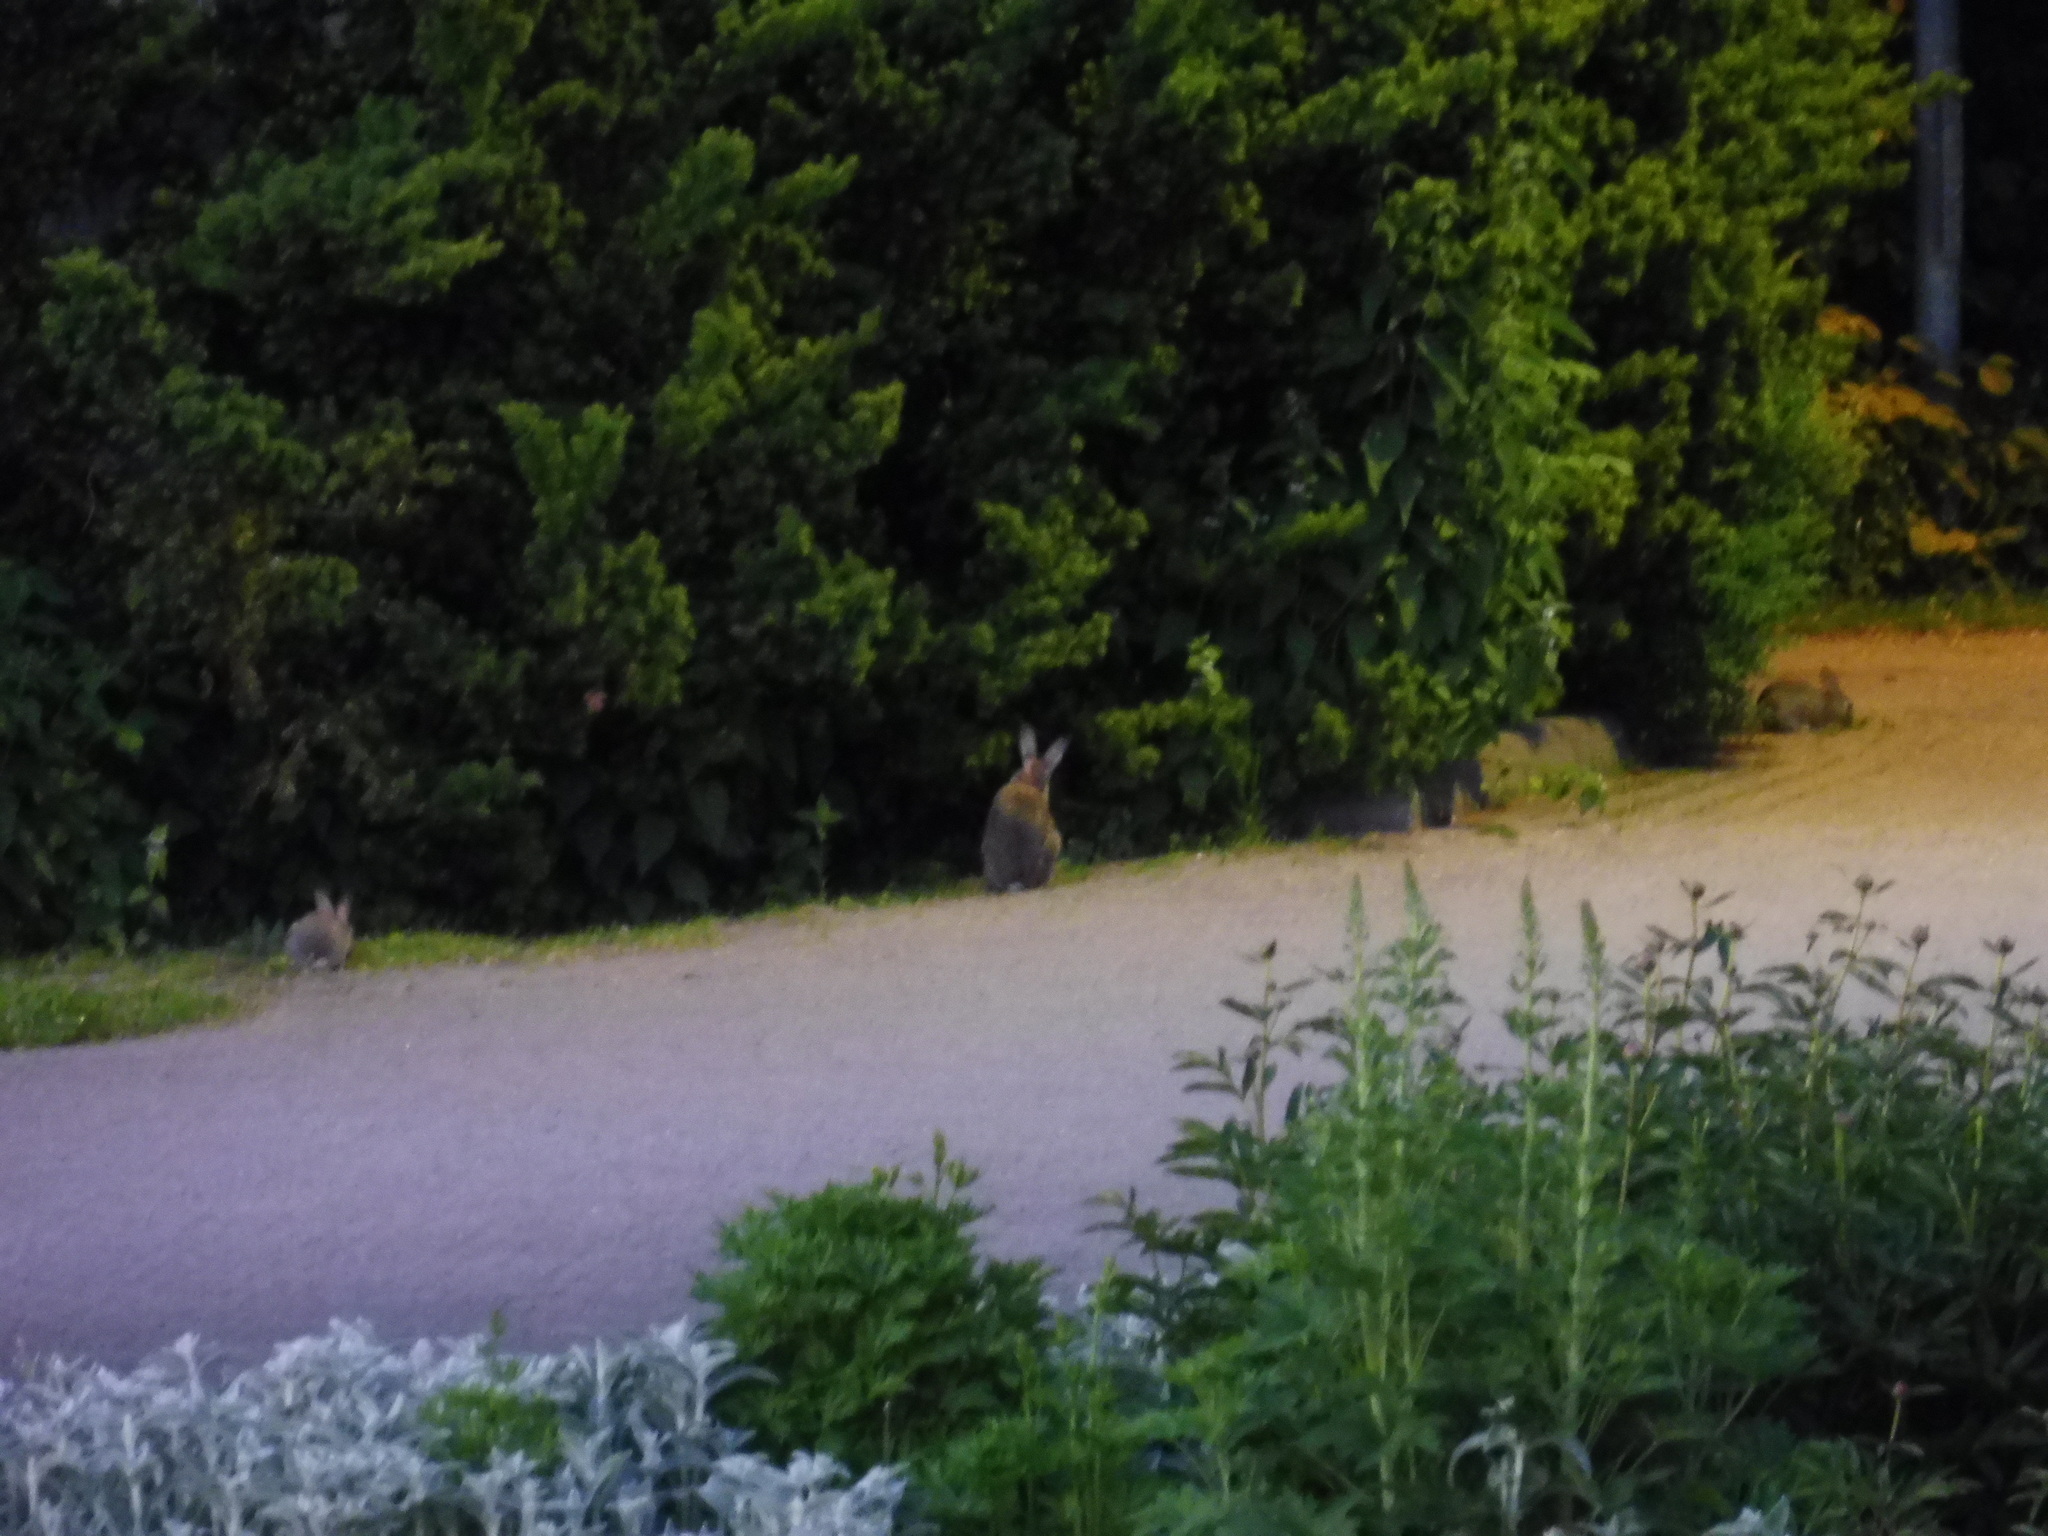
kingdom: Animalia
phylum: Chordata
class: Mammalia
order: Lagomorpha
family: Leporidae
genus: Oryctolagus
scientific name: Oryctolagus cuniculus
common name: European rabbit
